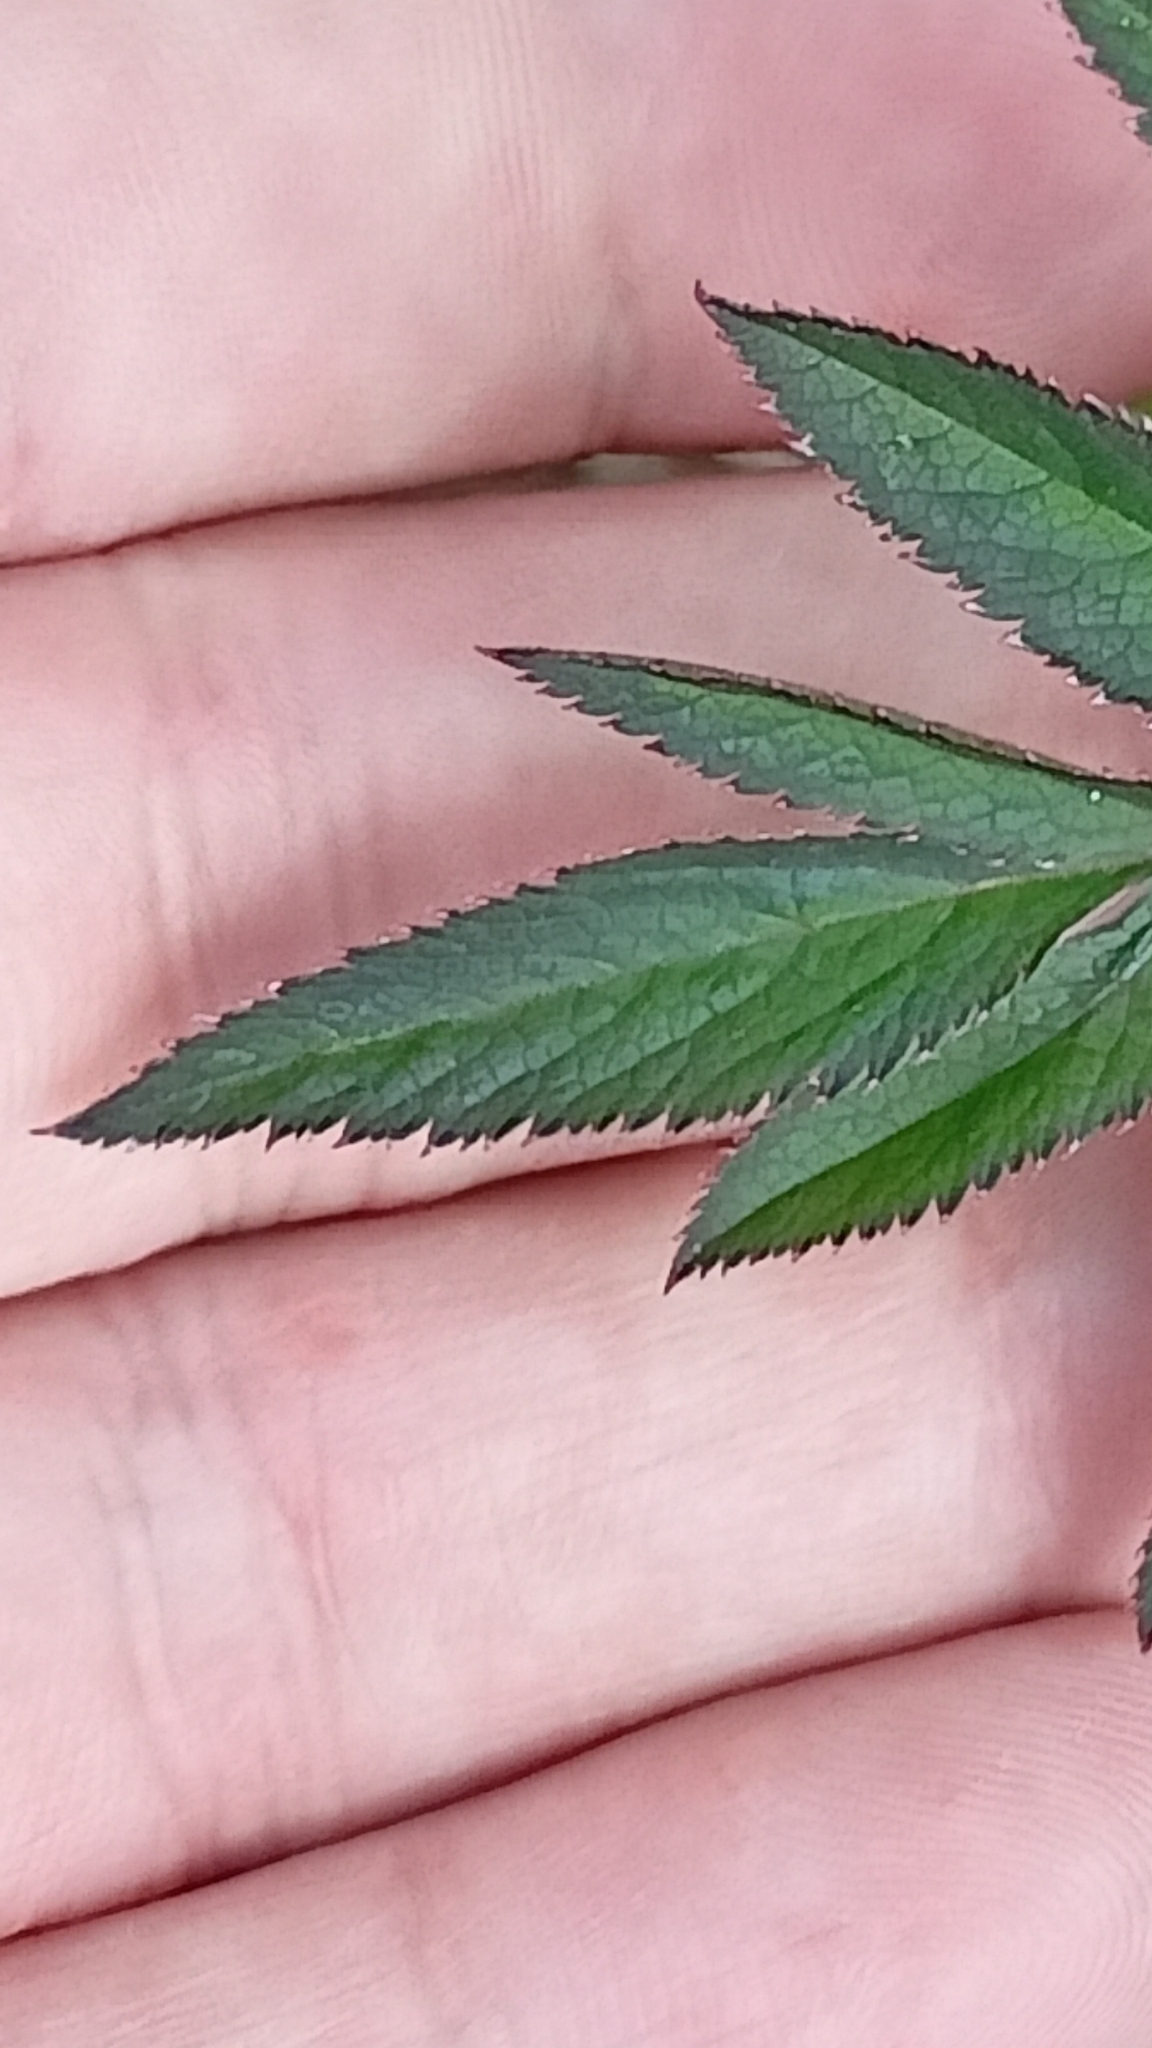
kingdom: Plantae
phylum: Tracheophyta
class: Magnoliopsida
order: Apiales
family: Apiaceae
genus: Angelica
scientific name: Angelica sylvestris
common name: Wild angelica
